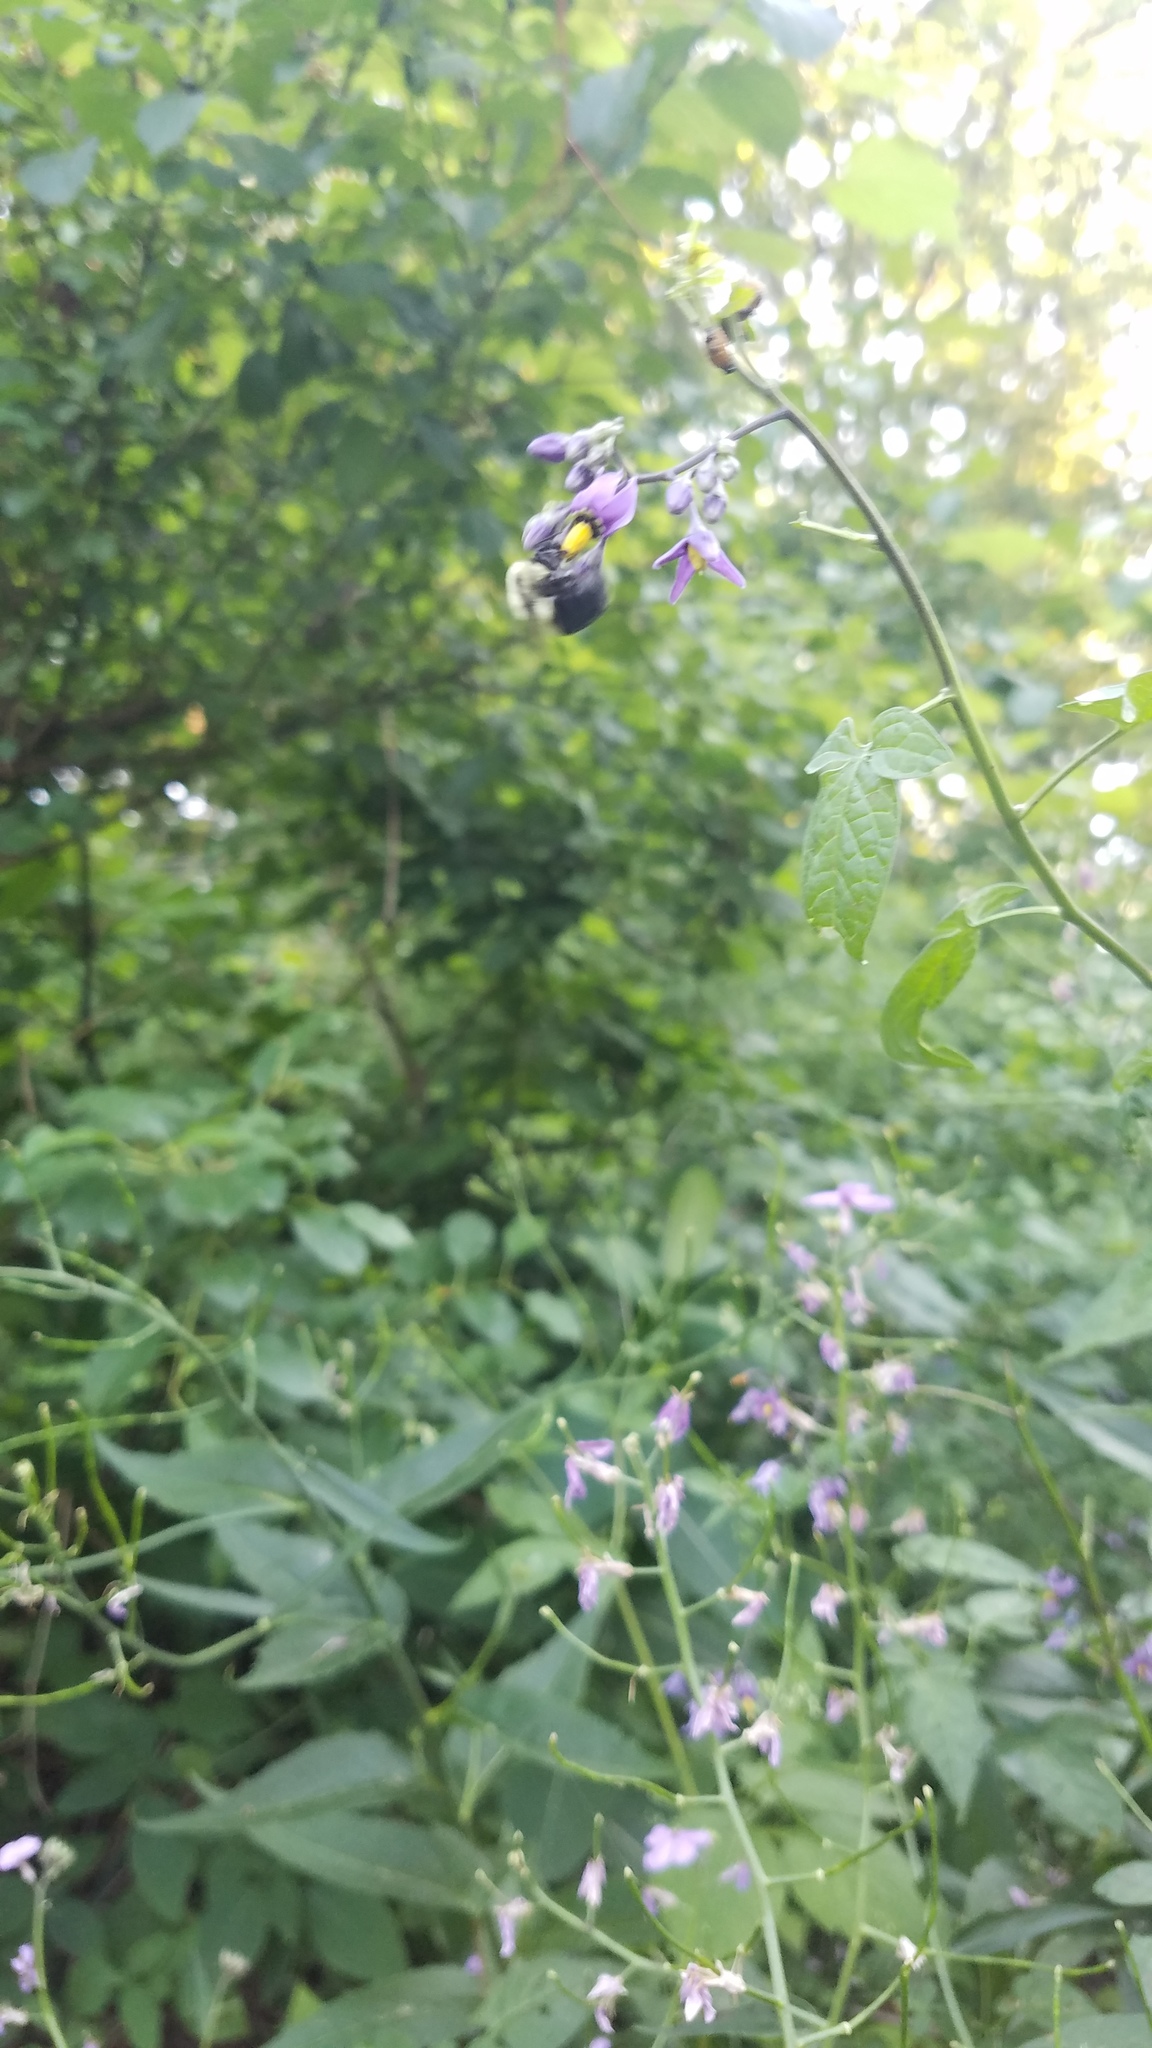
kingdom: Plantae
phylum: Tracheophyta
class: Magnoliopsida
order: Solanales
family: Solanaceae
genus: Solanum
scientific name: Solanum dulcamara
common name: Climbing nightshade
